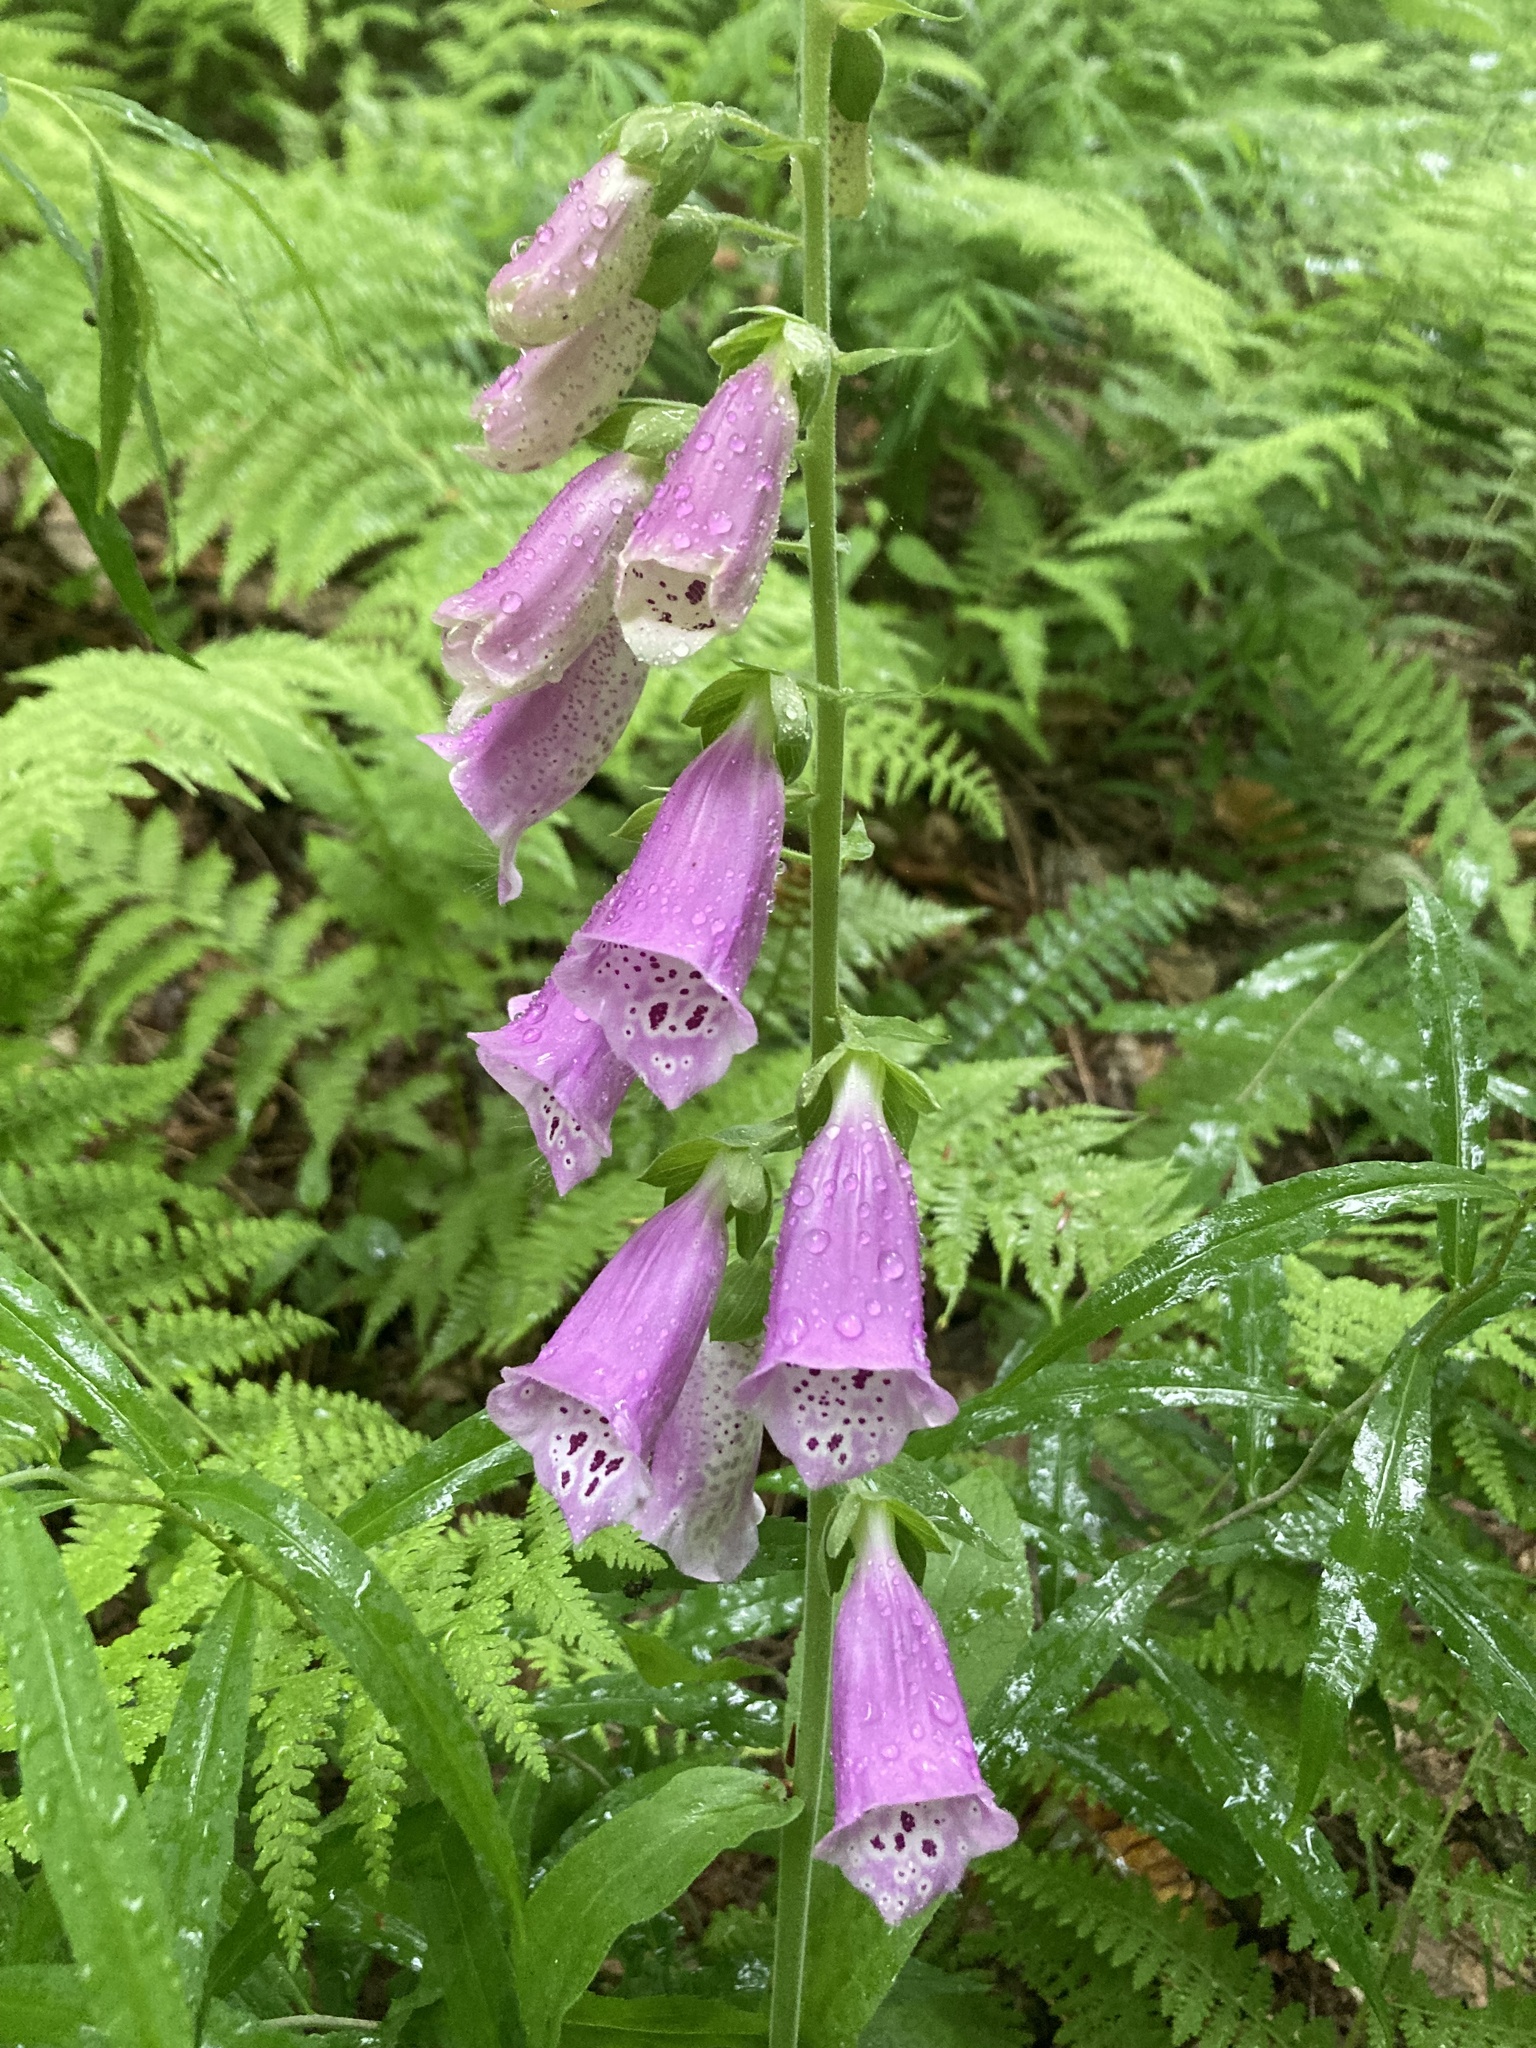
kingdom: Plantae
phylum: Tracheophyta
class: Magnoliopsida
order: Lamiales
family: Plantaginaceae
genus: Digitalis
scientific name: Digitalis purpurea
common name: Foxglove
